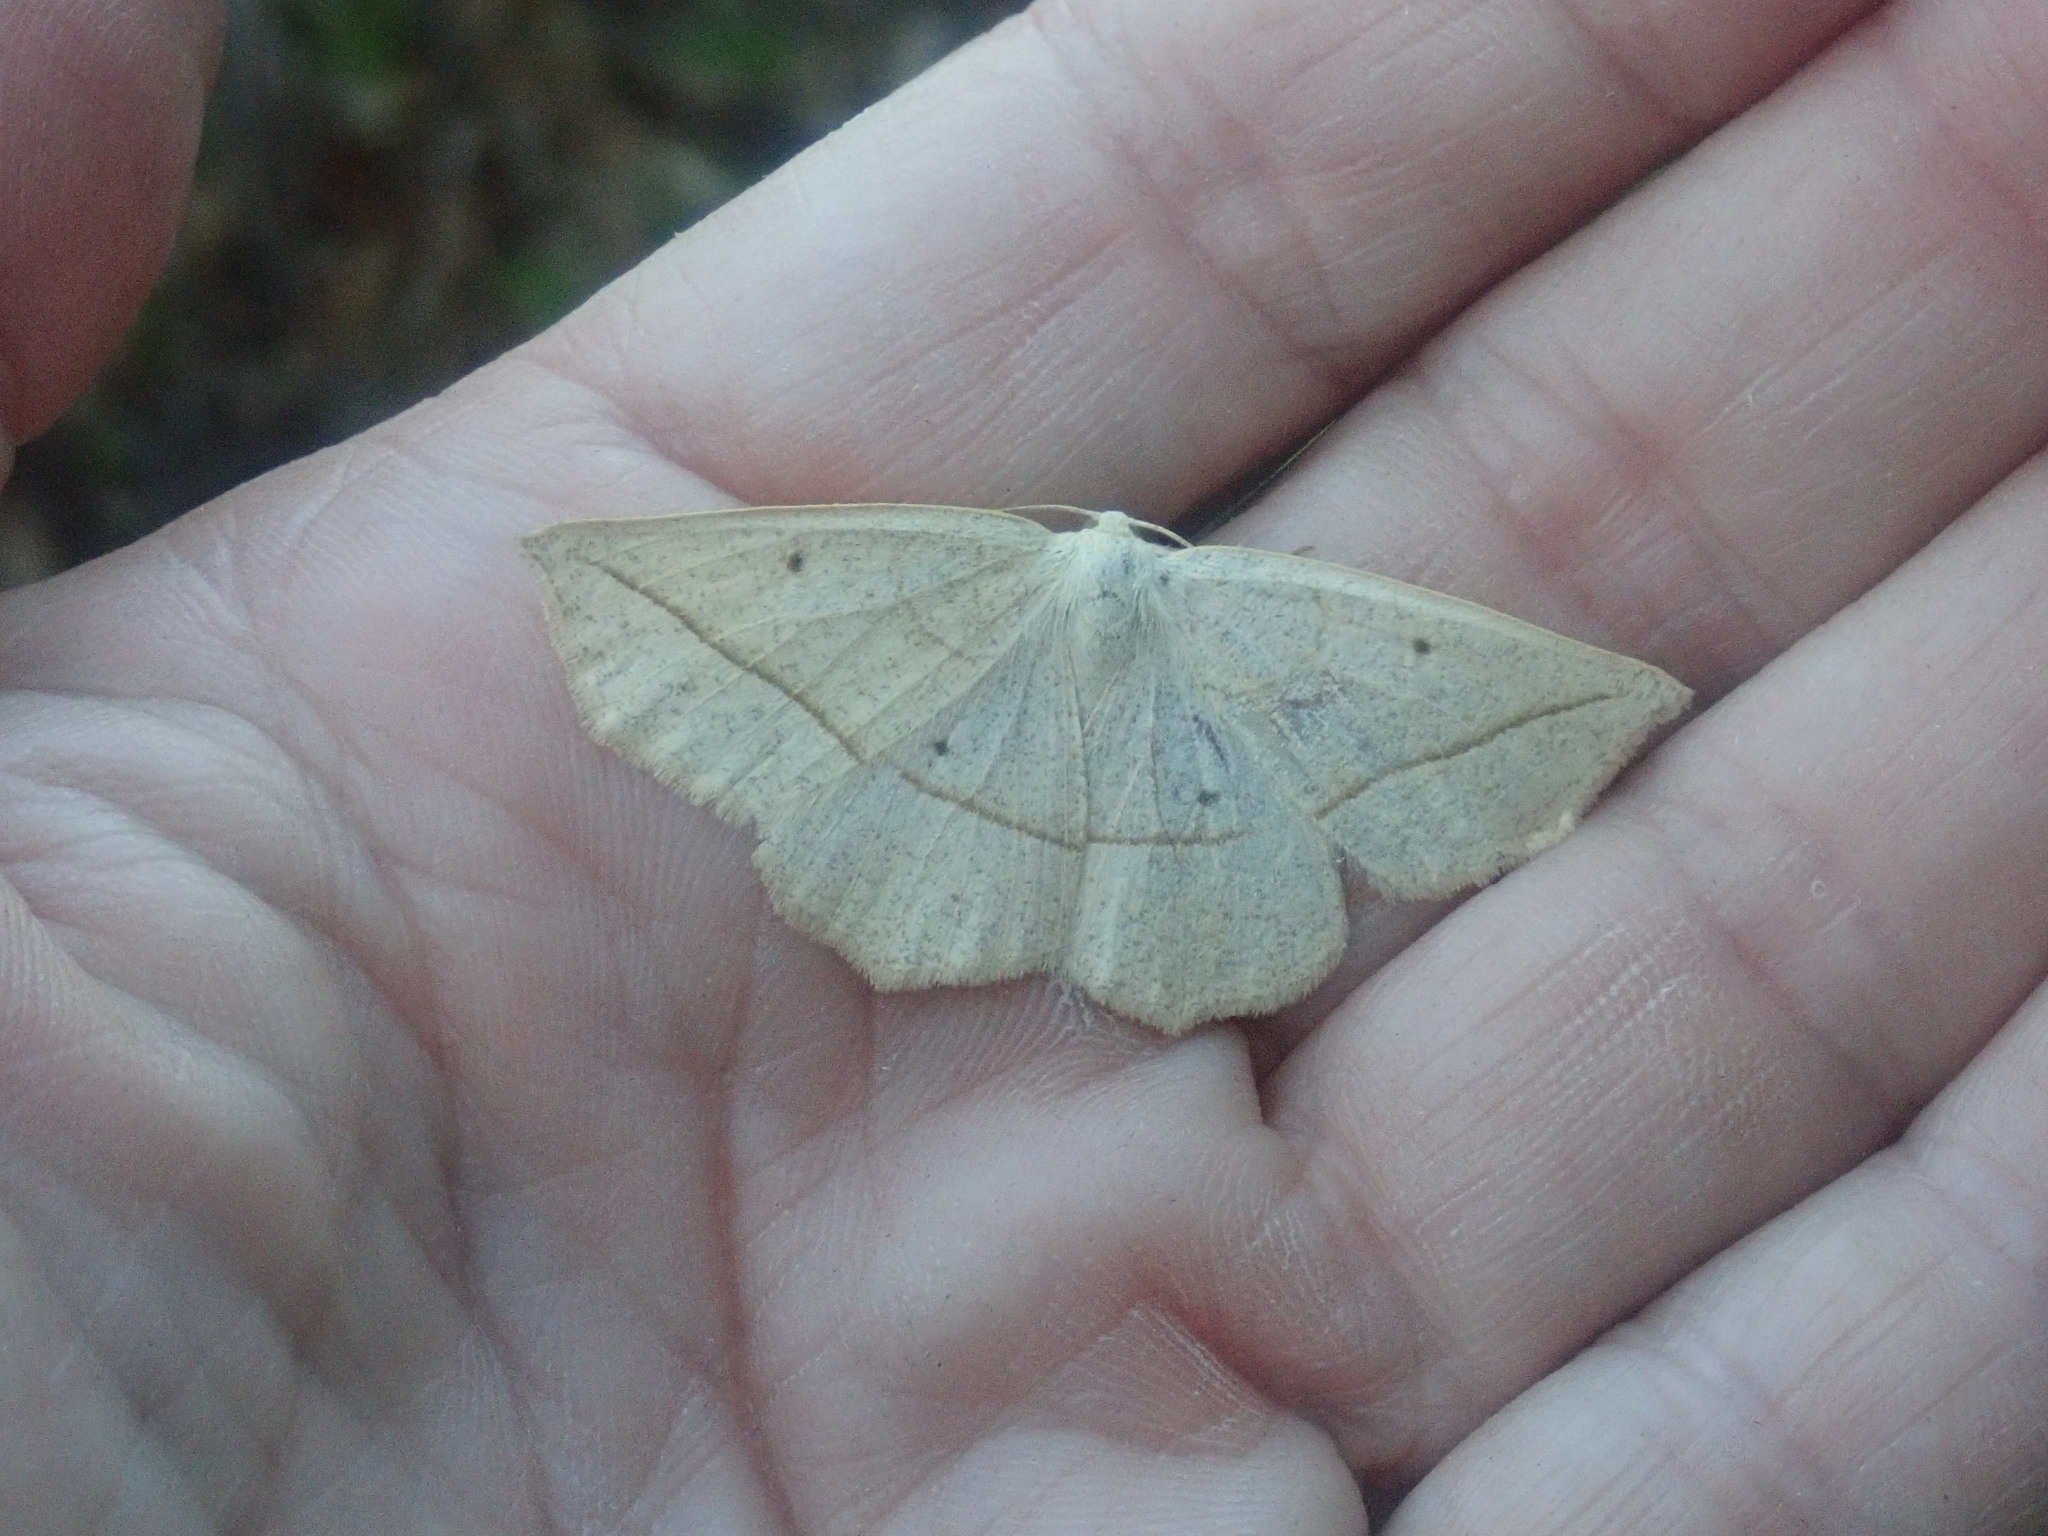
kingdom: Animalia
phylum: Arthropoda
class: Insecta
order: Lepidoptera
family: Geometridae
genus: Eusarca
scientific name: Eusarca confusaria
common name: Confused eusarca
